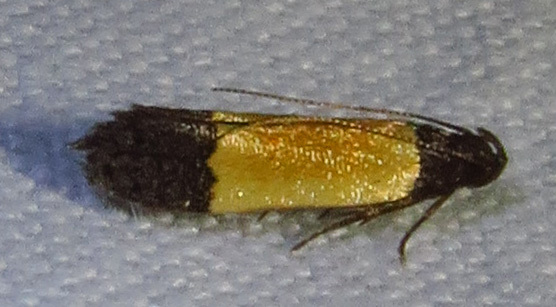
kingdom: Animalia
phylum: Arthropoda
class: Insecta
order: Lepidoptera
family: Gelechiidae
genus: Anacampsis
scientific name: Anacampsis coverdalella
